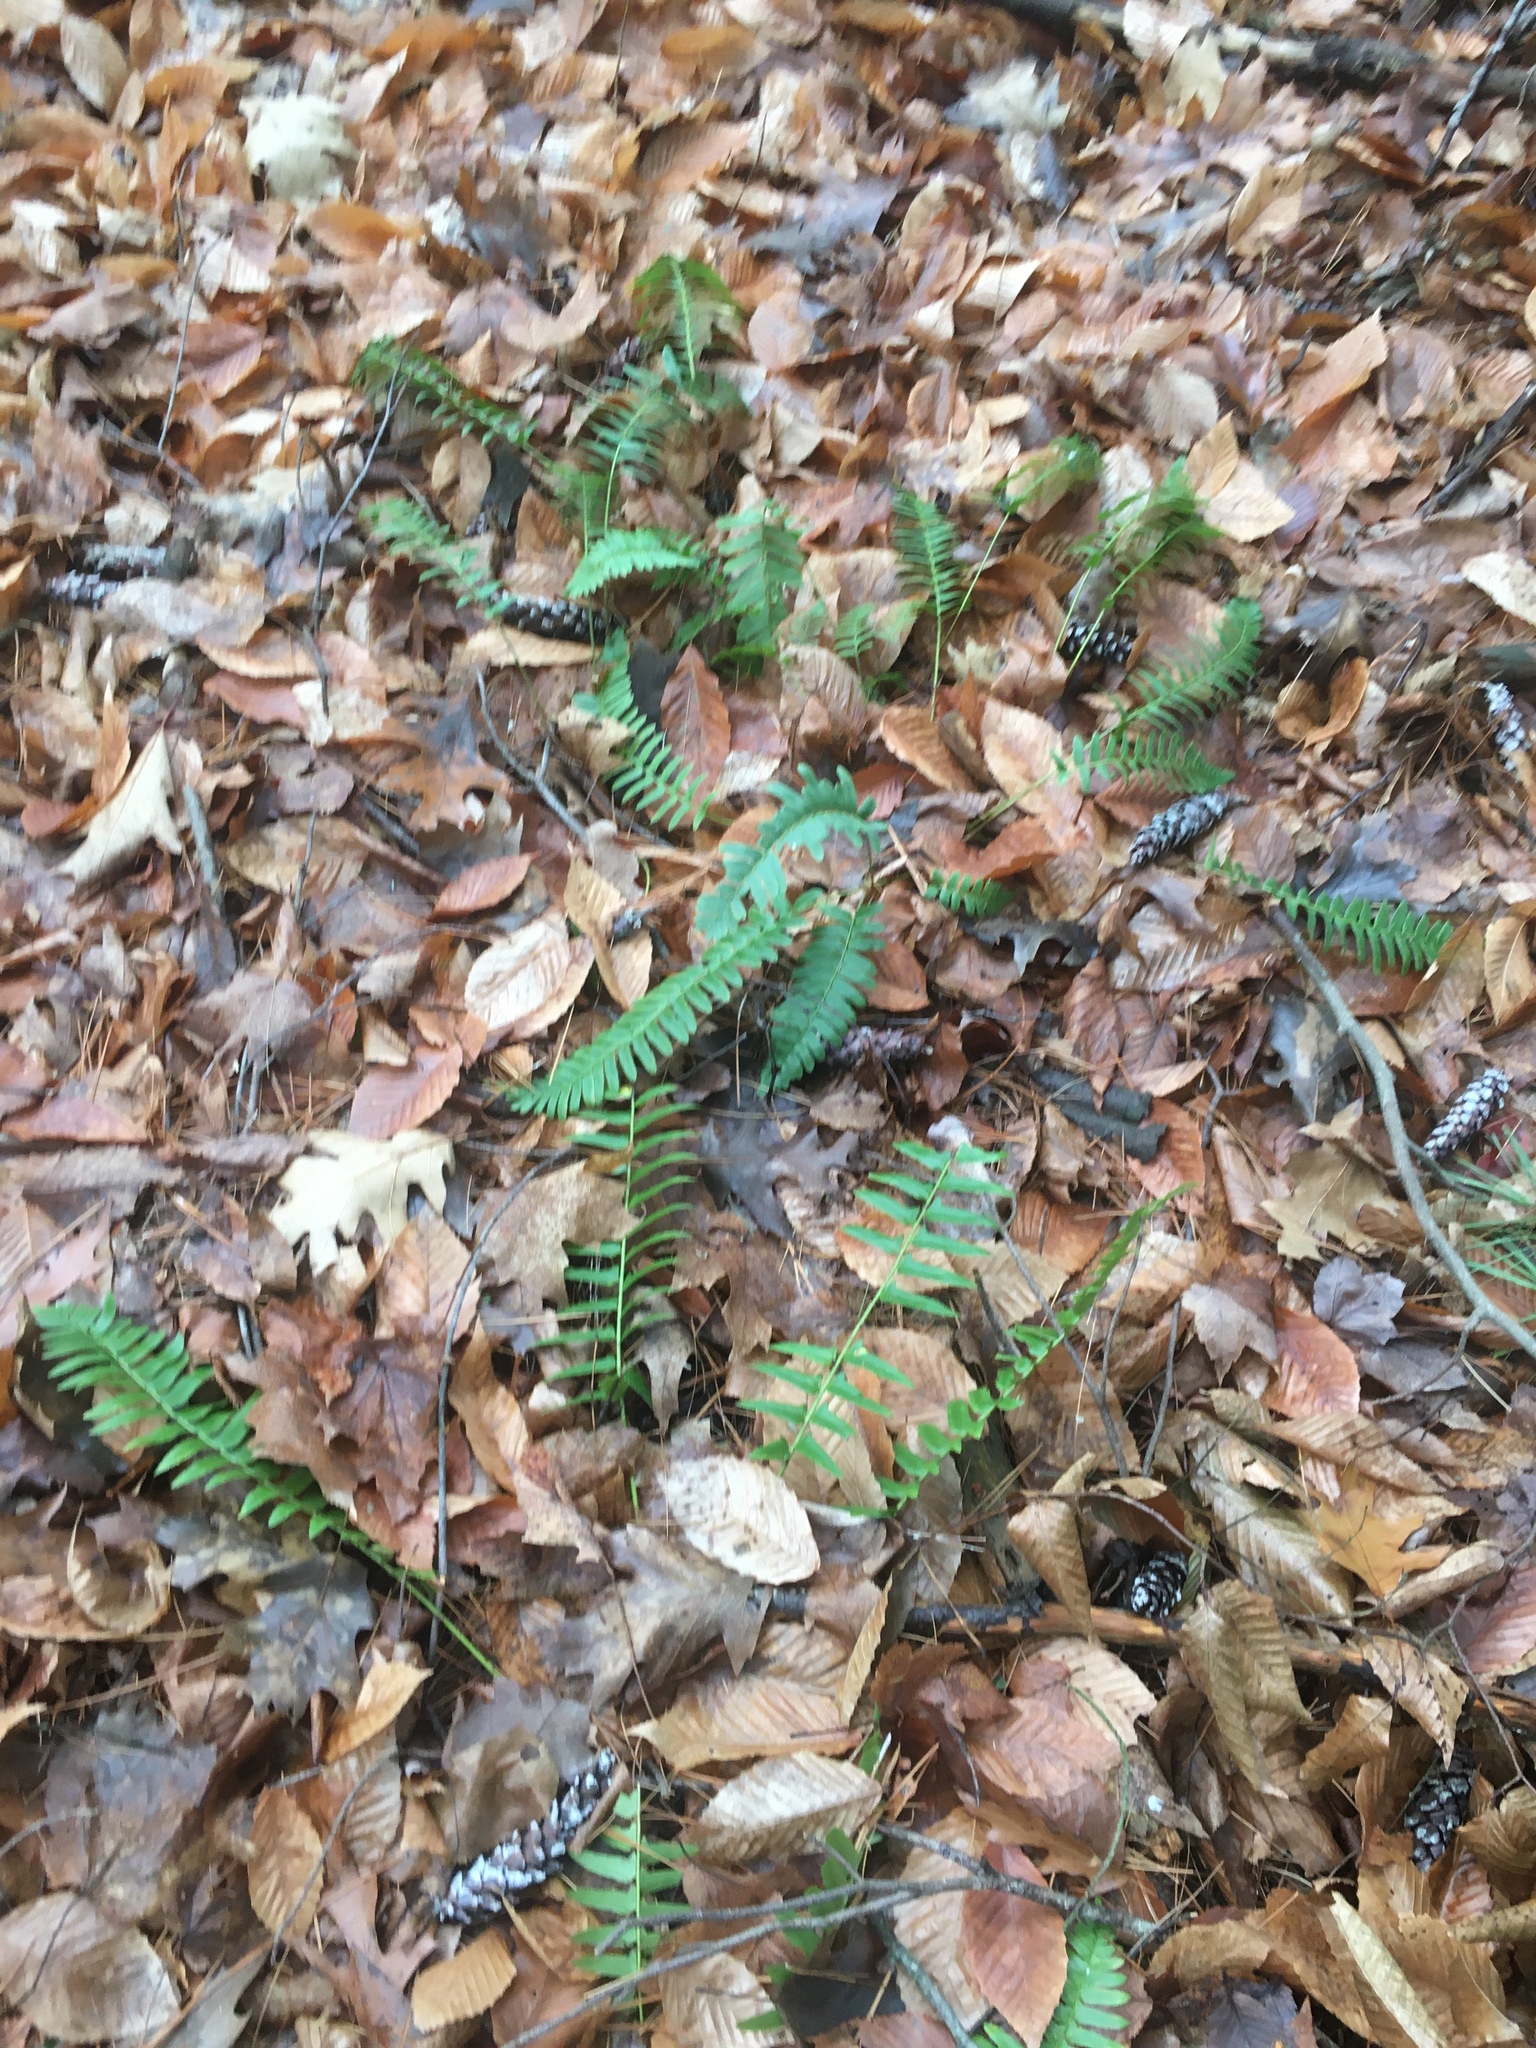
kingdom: Plantae
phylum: Tracheophyta
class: Polypodiopsida
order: Polypodiales
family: Dryopteridaceae
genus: Polystichum
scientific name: Polystichum acrostichoides
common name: Christmas fern
